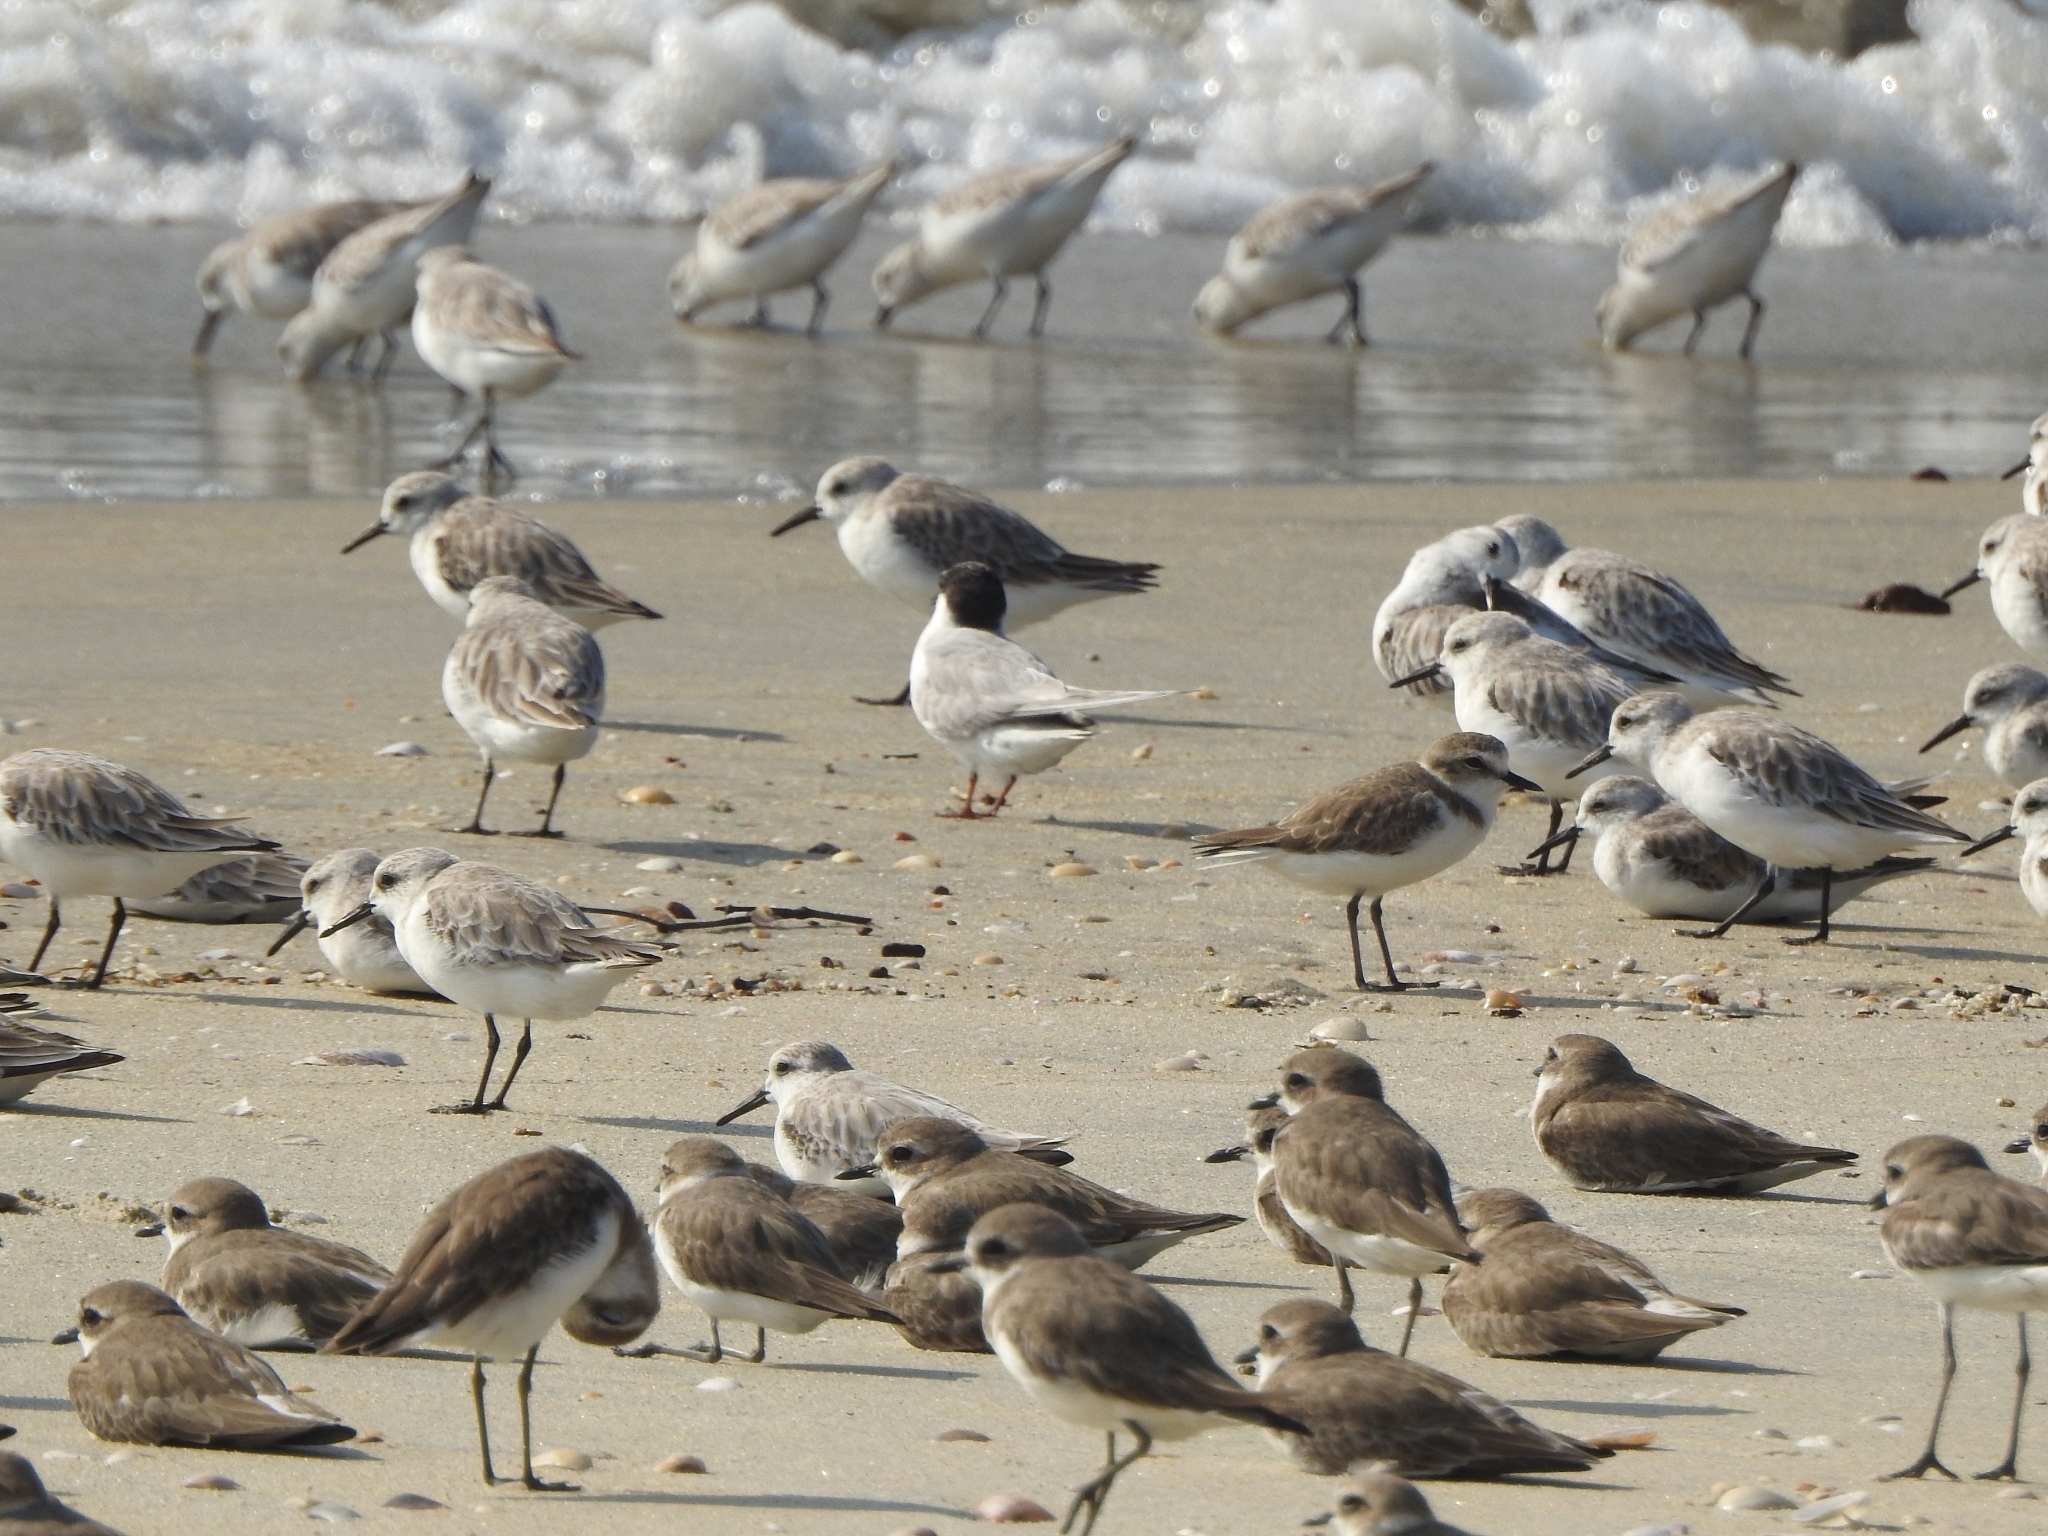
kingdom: Animalia
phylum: Chordata
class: Aves
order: Charadriiformes
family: Scolopacidae
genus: Calidris
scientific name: Calidris alba
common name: Sanderling
